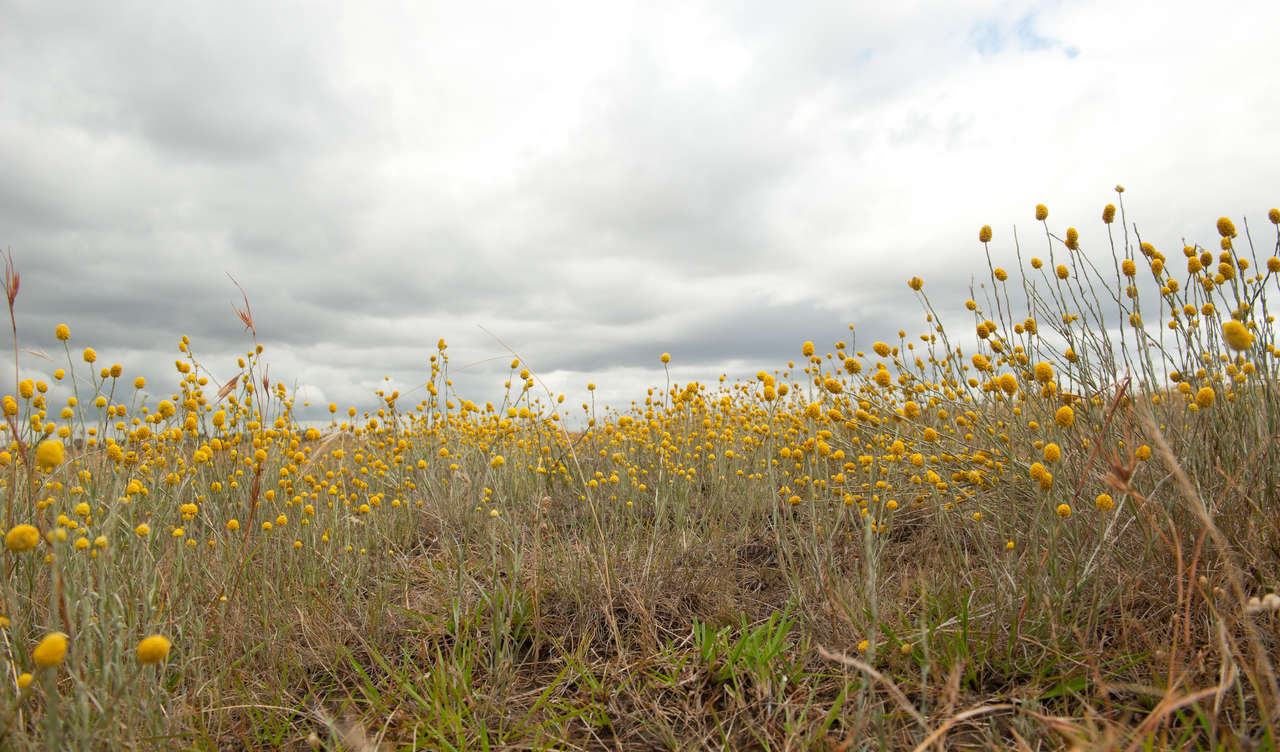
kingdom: Plantae
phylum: Tracheophyta
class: Magnoliopsida
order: Asterales
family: Asteraceae
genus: Calocephalus
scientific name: Calocephalus citreus
